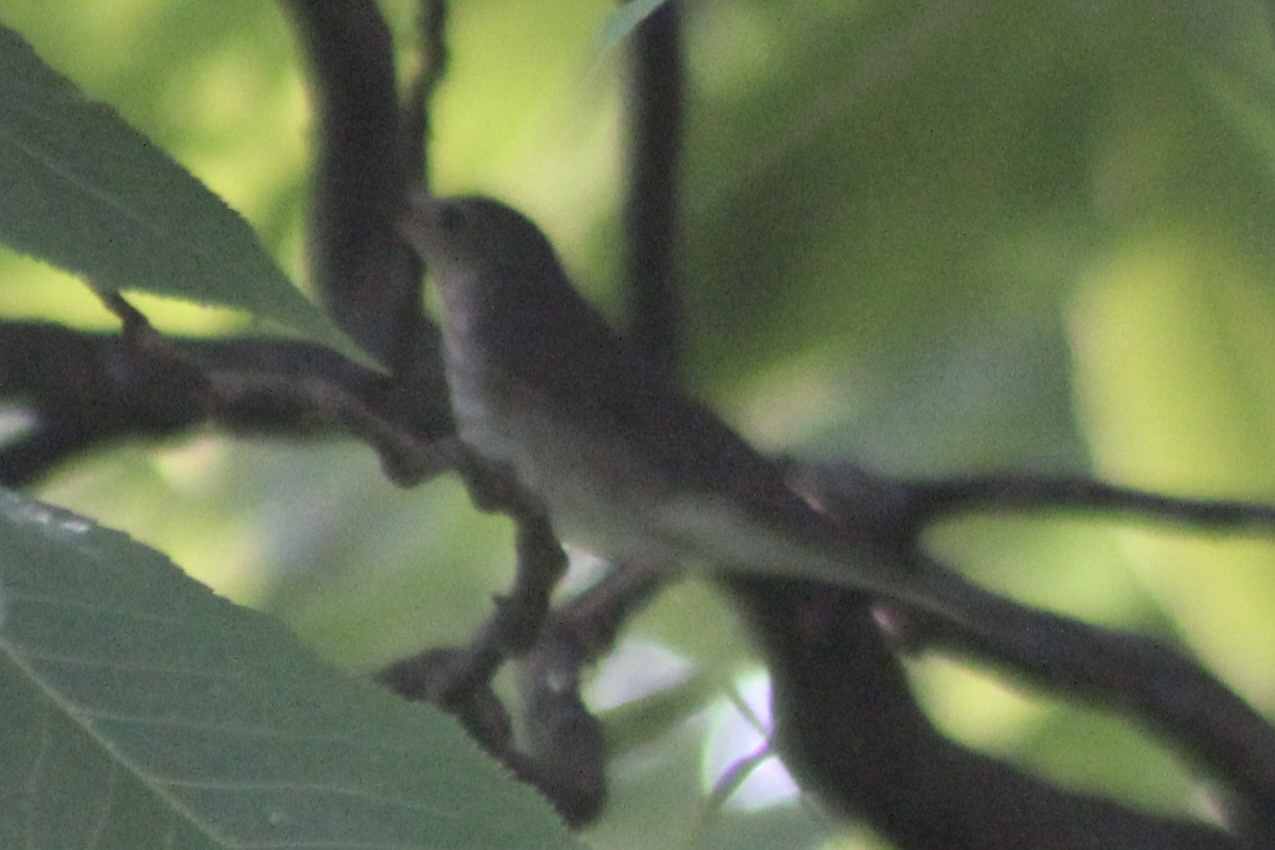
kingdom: Animalia
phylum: Chordata
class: Aves
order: Passeriformes
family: Turdidae
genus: Catharus
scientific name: Catharus ustulatus
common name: Swainson's thrush
